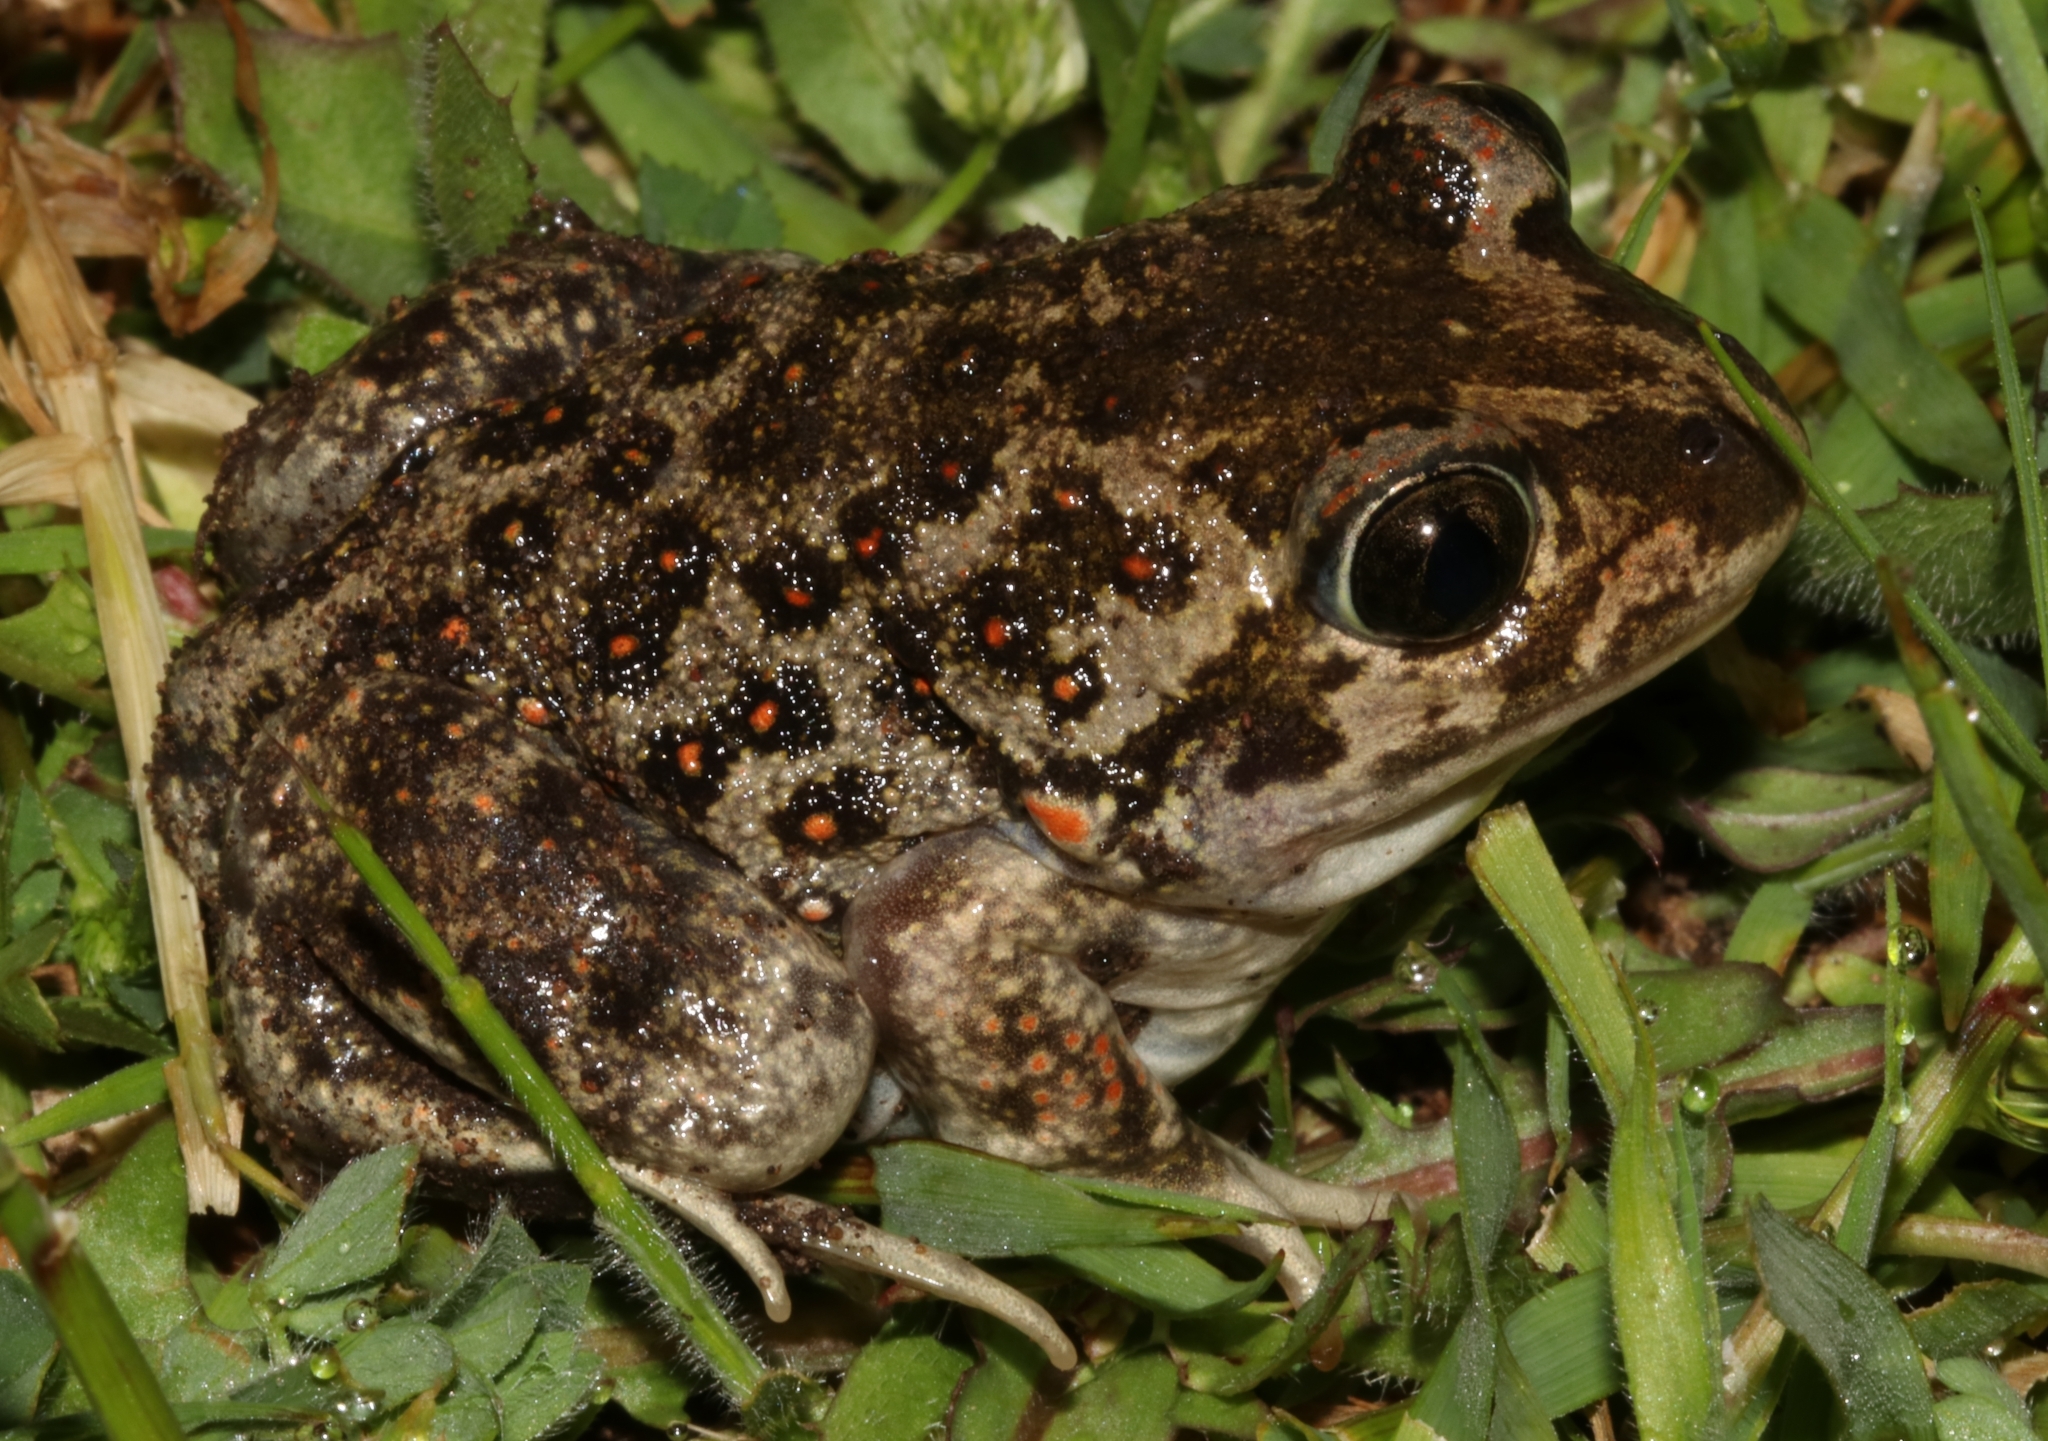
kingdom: Animalia
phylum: Chordata
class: Amphibia
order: Anura
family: Pelobatidae
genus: Pelobates
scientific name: Pelobates balcanicus
